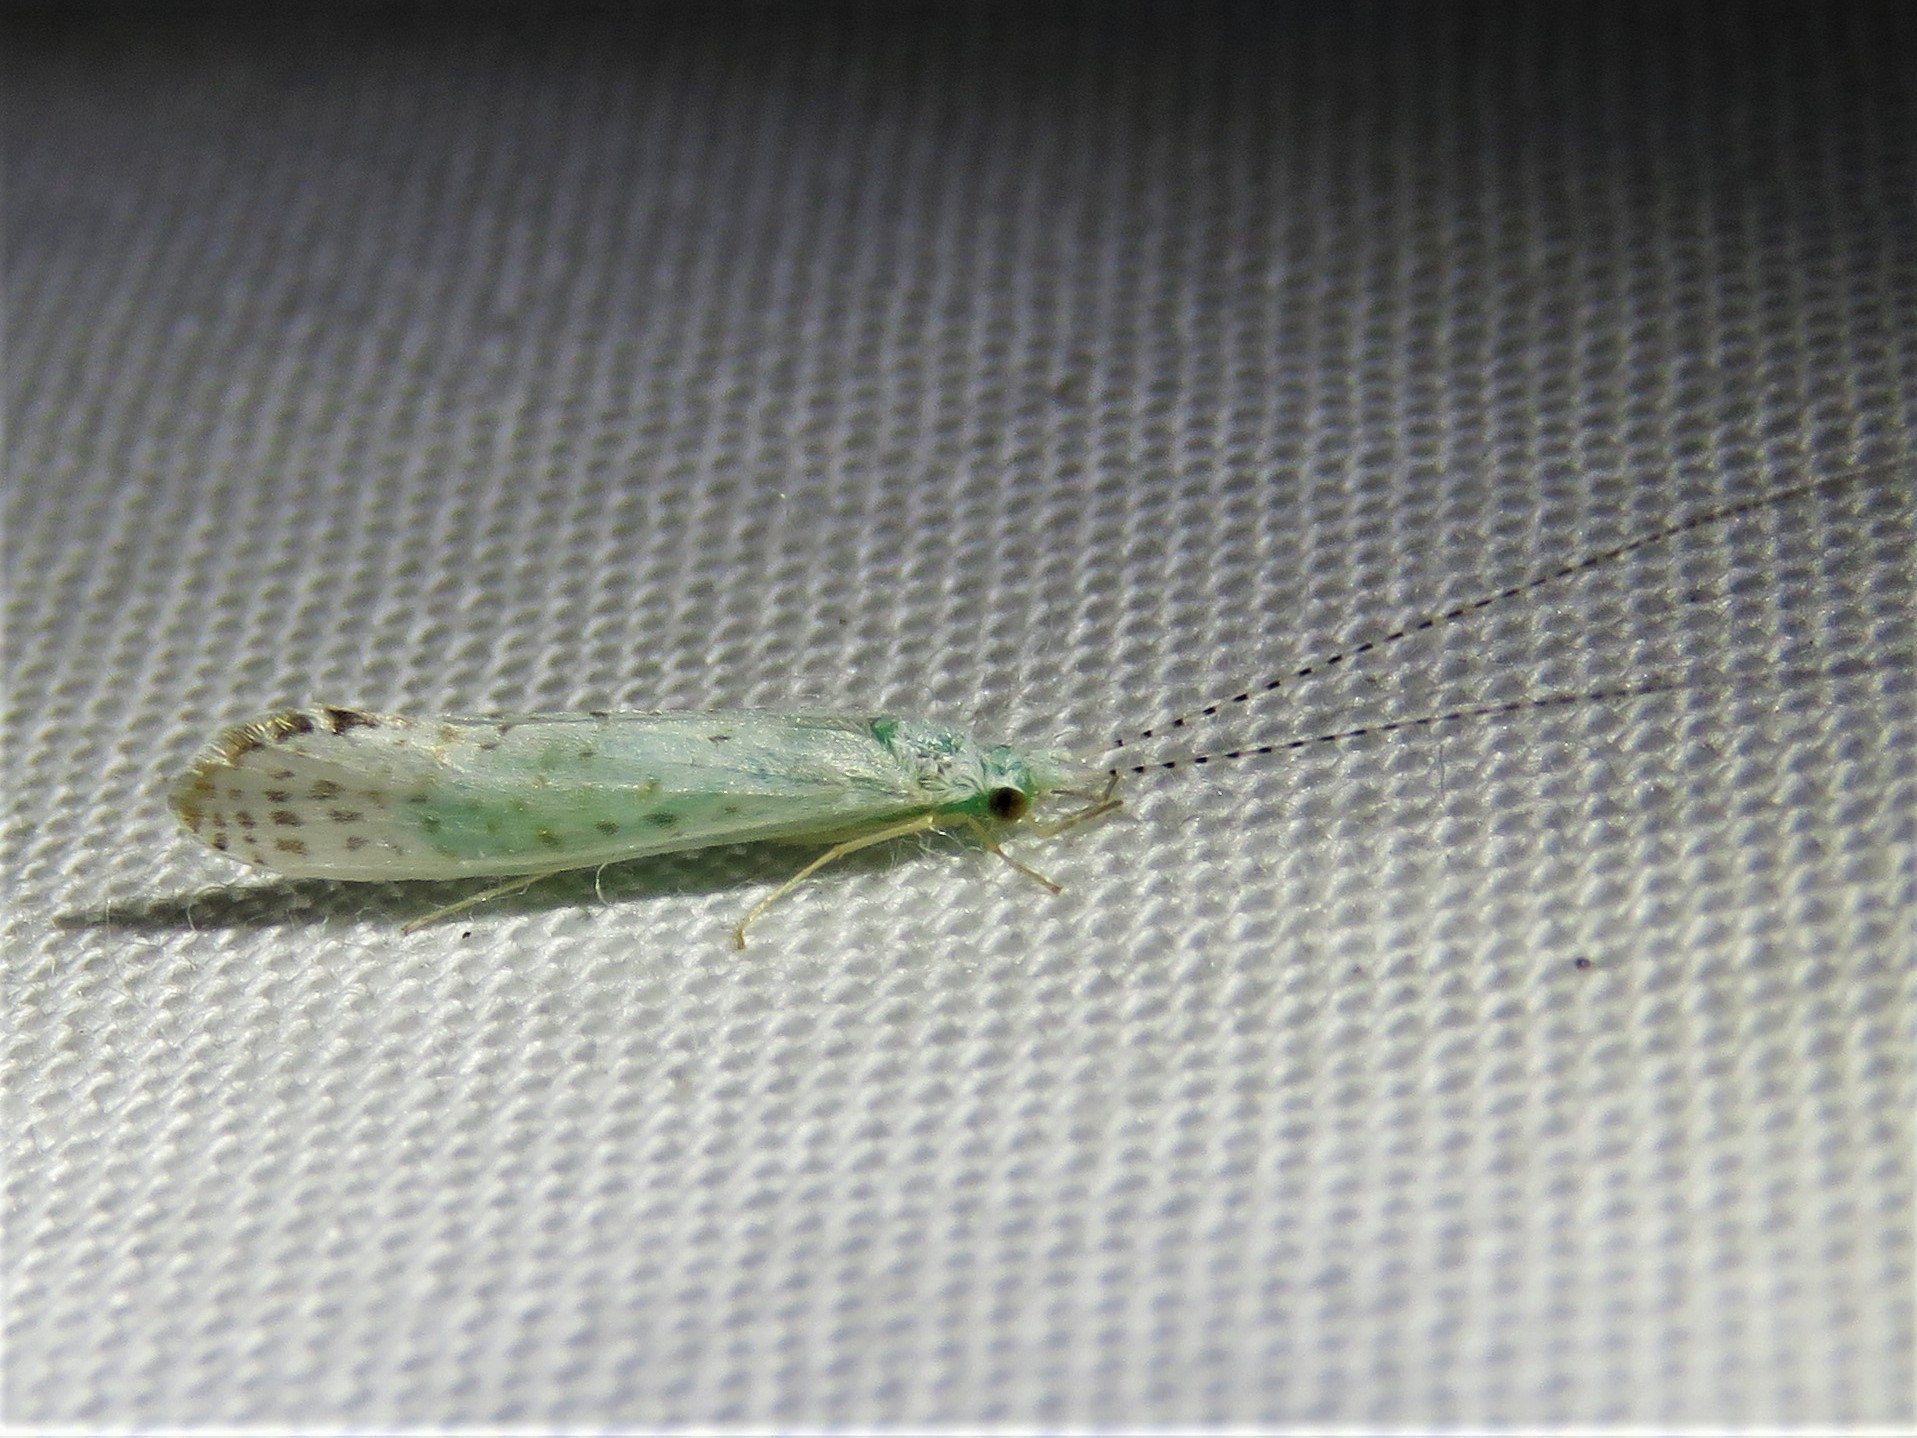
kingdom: Animalia
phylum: Arthropoda
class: Insecta
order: Trichoptera
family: Leptoceridae
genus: Nectopsyche
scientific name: Nectopsyche candida
